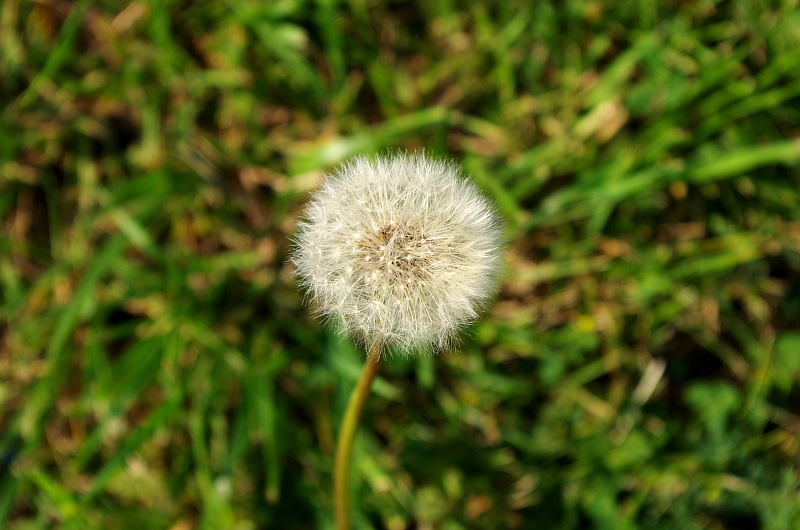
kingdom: Plantae
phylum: Tracheophyta
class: Magnoliopsida
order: Asterales
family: Asteraceae
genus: Taraxacum
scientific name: Taraxacum officinale
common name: Common dandelion
